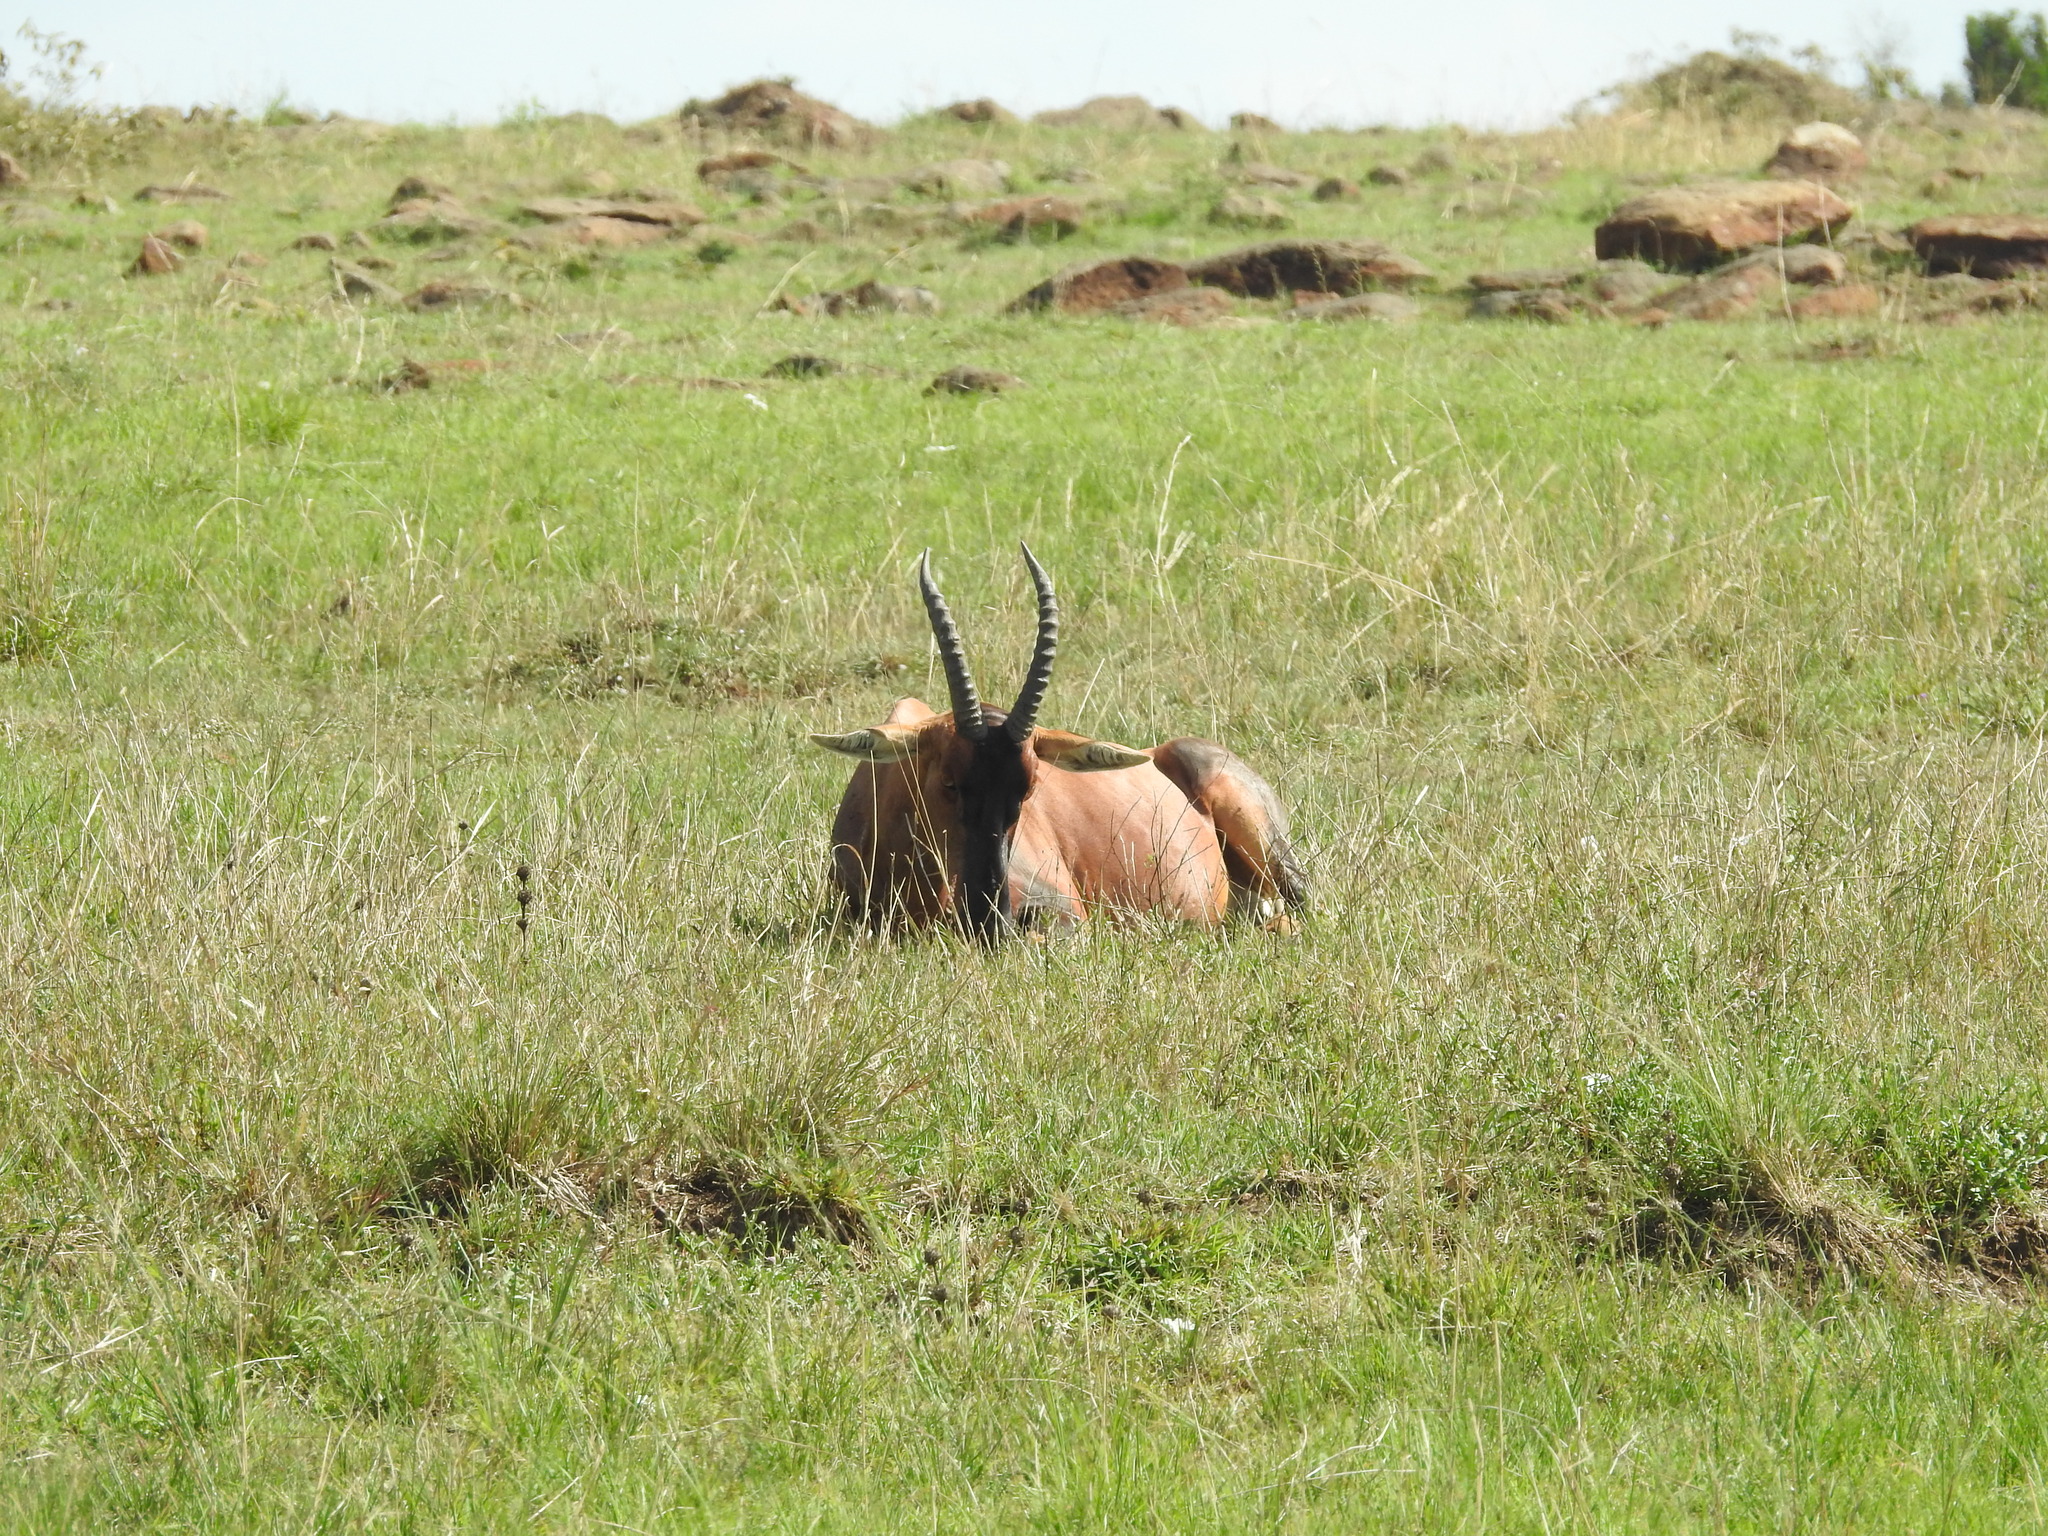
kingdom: Animalia
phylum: Chordata
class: Mammalia
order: Artiodactyla
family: Bovidae
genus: Damaliscus
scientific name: Damaliscus korrigum
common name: Topi
